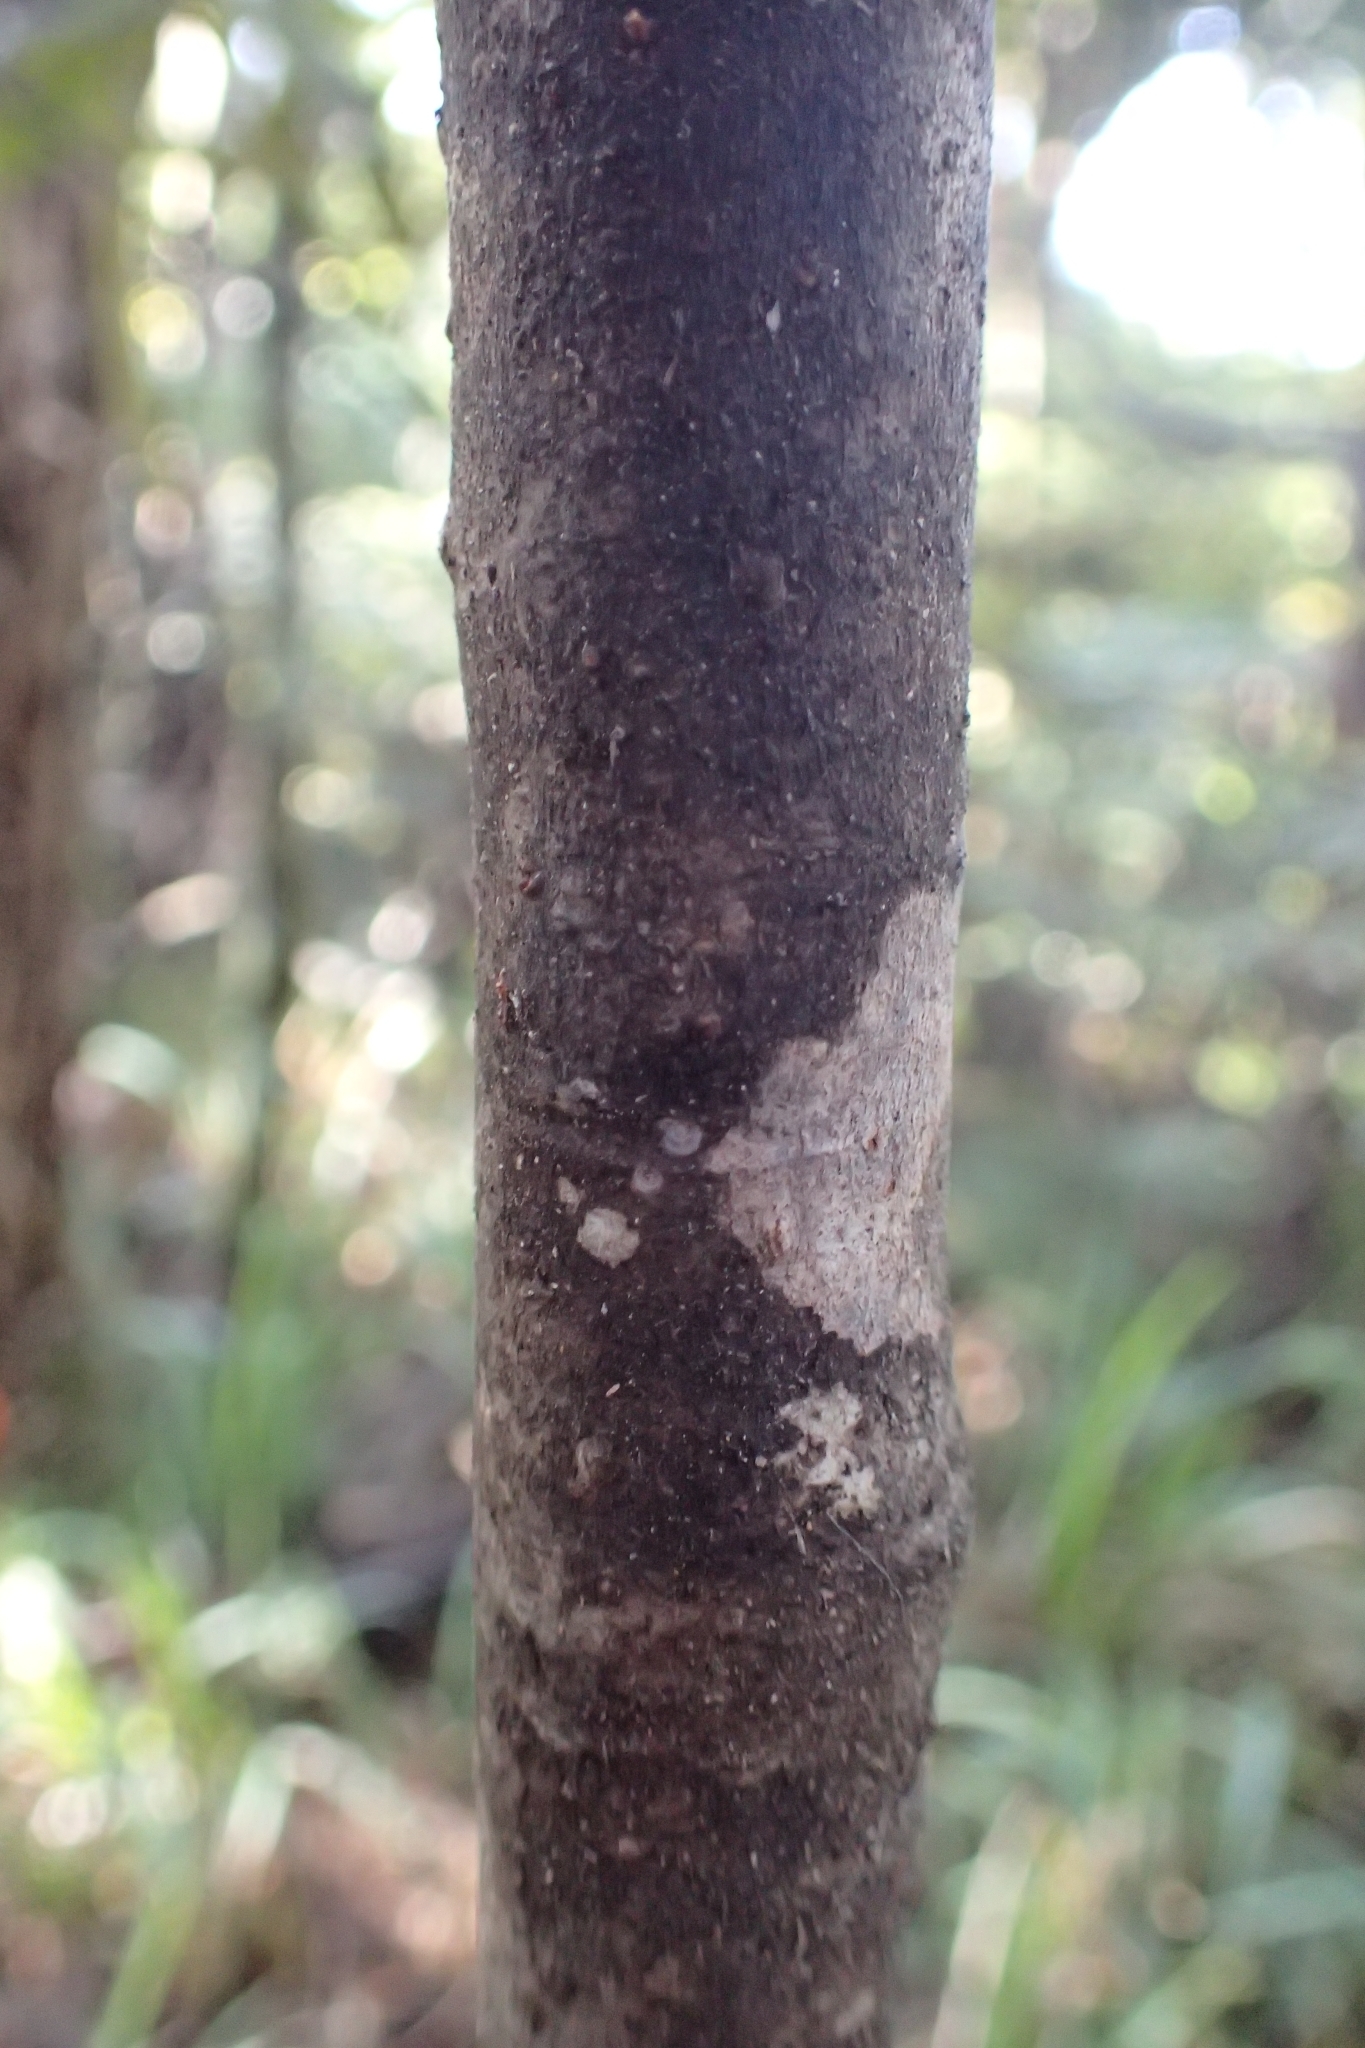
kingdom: Plantae
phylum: Tracheophyta
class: Magnoliopsida
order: Ericales
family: Primulaceae
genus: Myrsine
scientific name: Myrsine salicina
